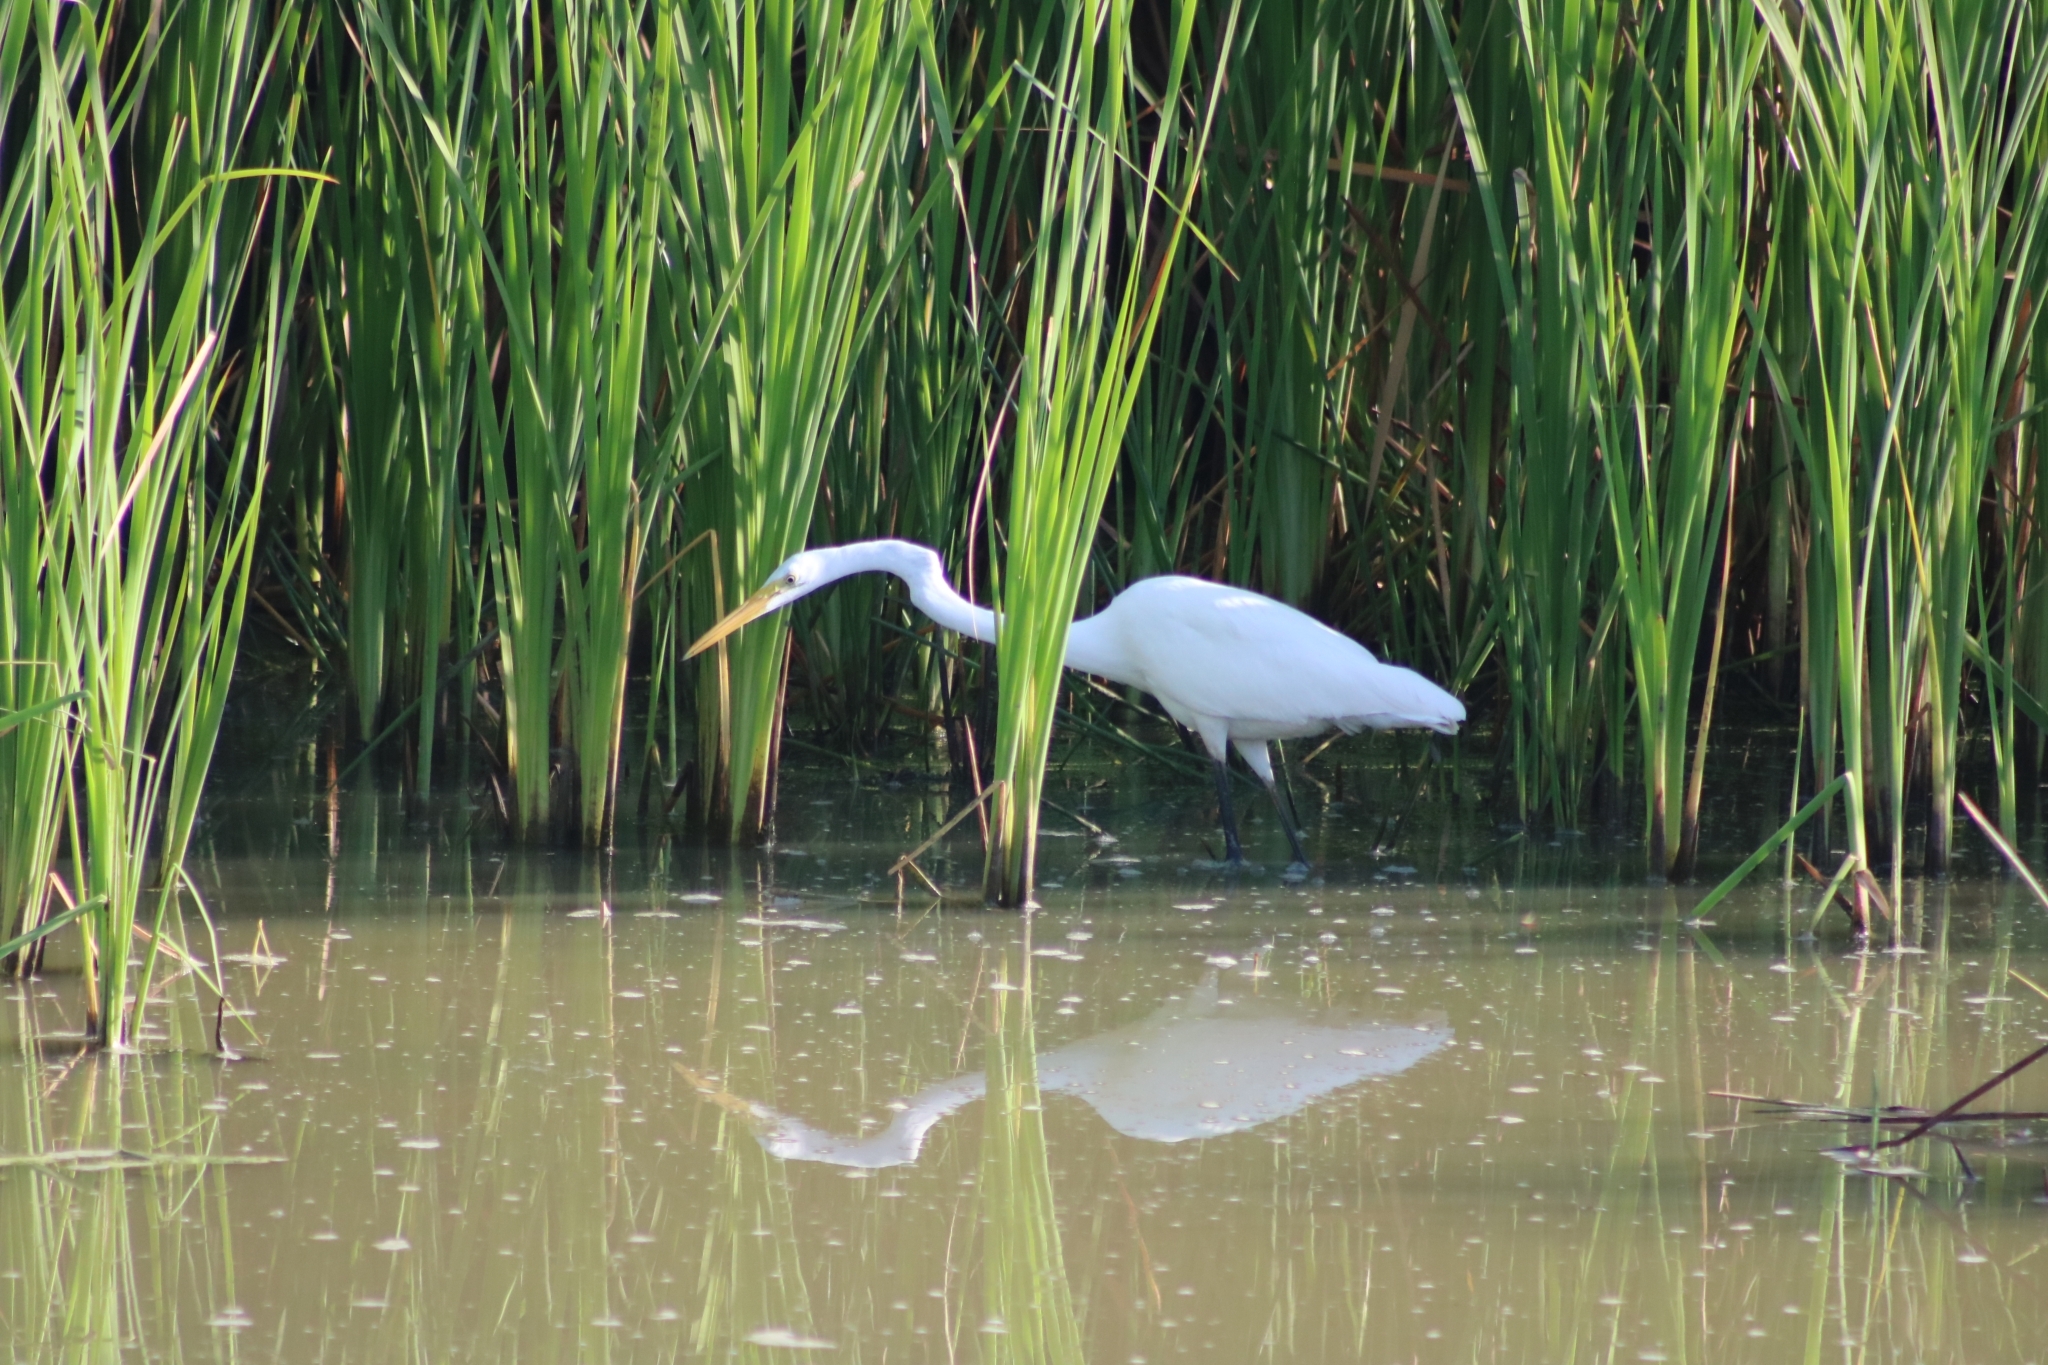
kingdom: Animalia
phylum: Chordata
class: Aves
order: Pelecaniformes
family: Ardeidae
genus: Ardea
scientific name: Ardea alba
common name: Great egret
